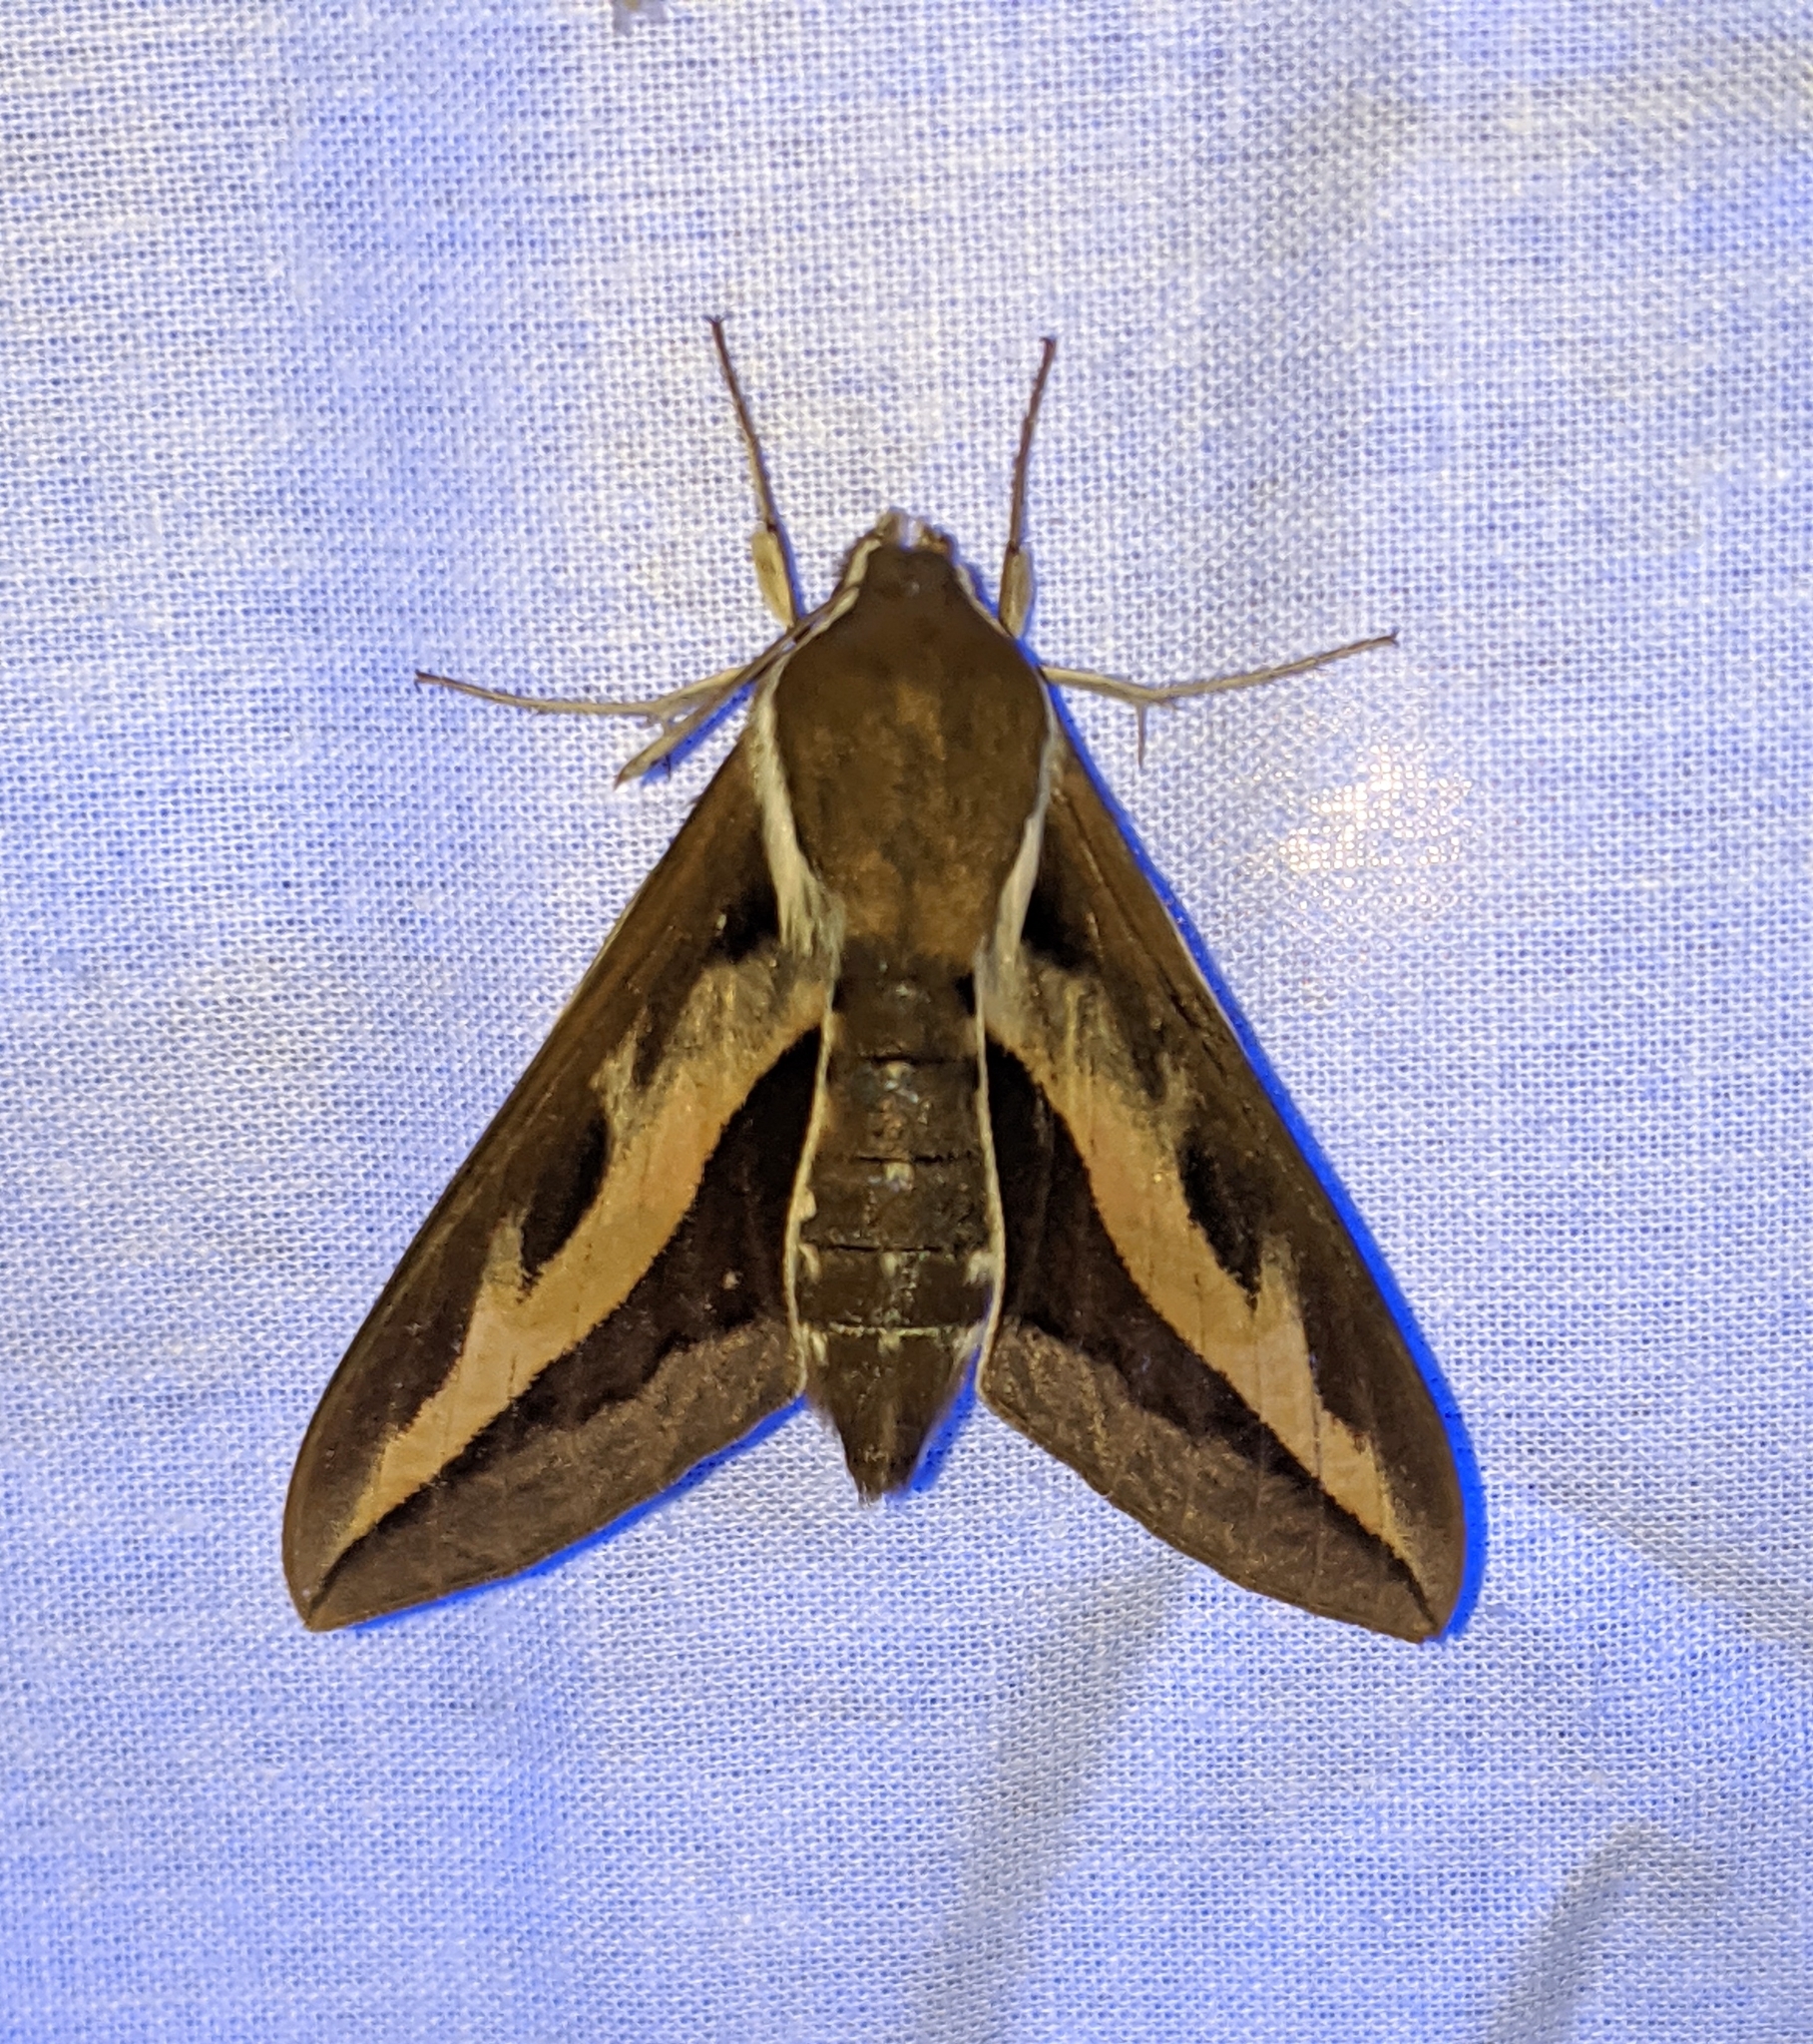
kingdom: Animalia
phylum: Arthropoda
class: Insecta
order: Lepidoptera
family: Sphingidae
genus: Hyles
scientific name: Hyles gallii
